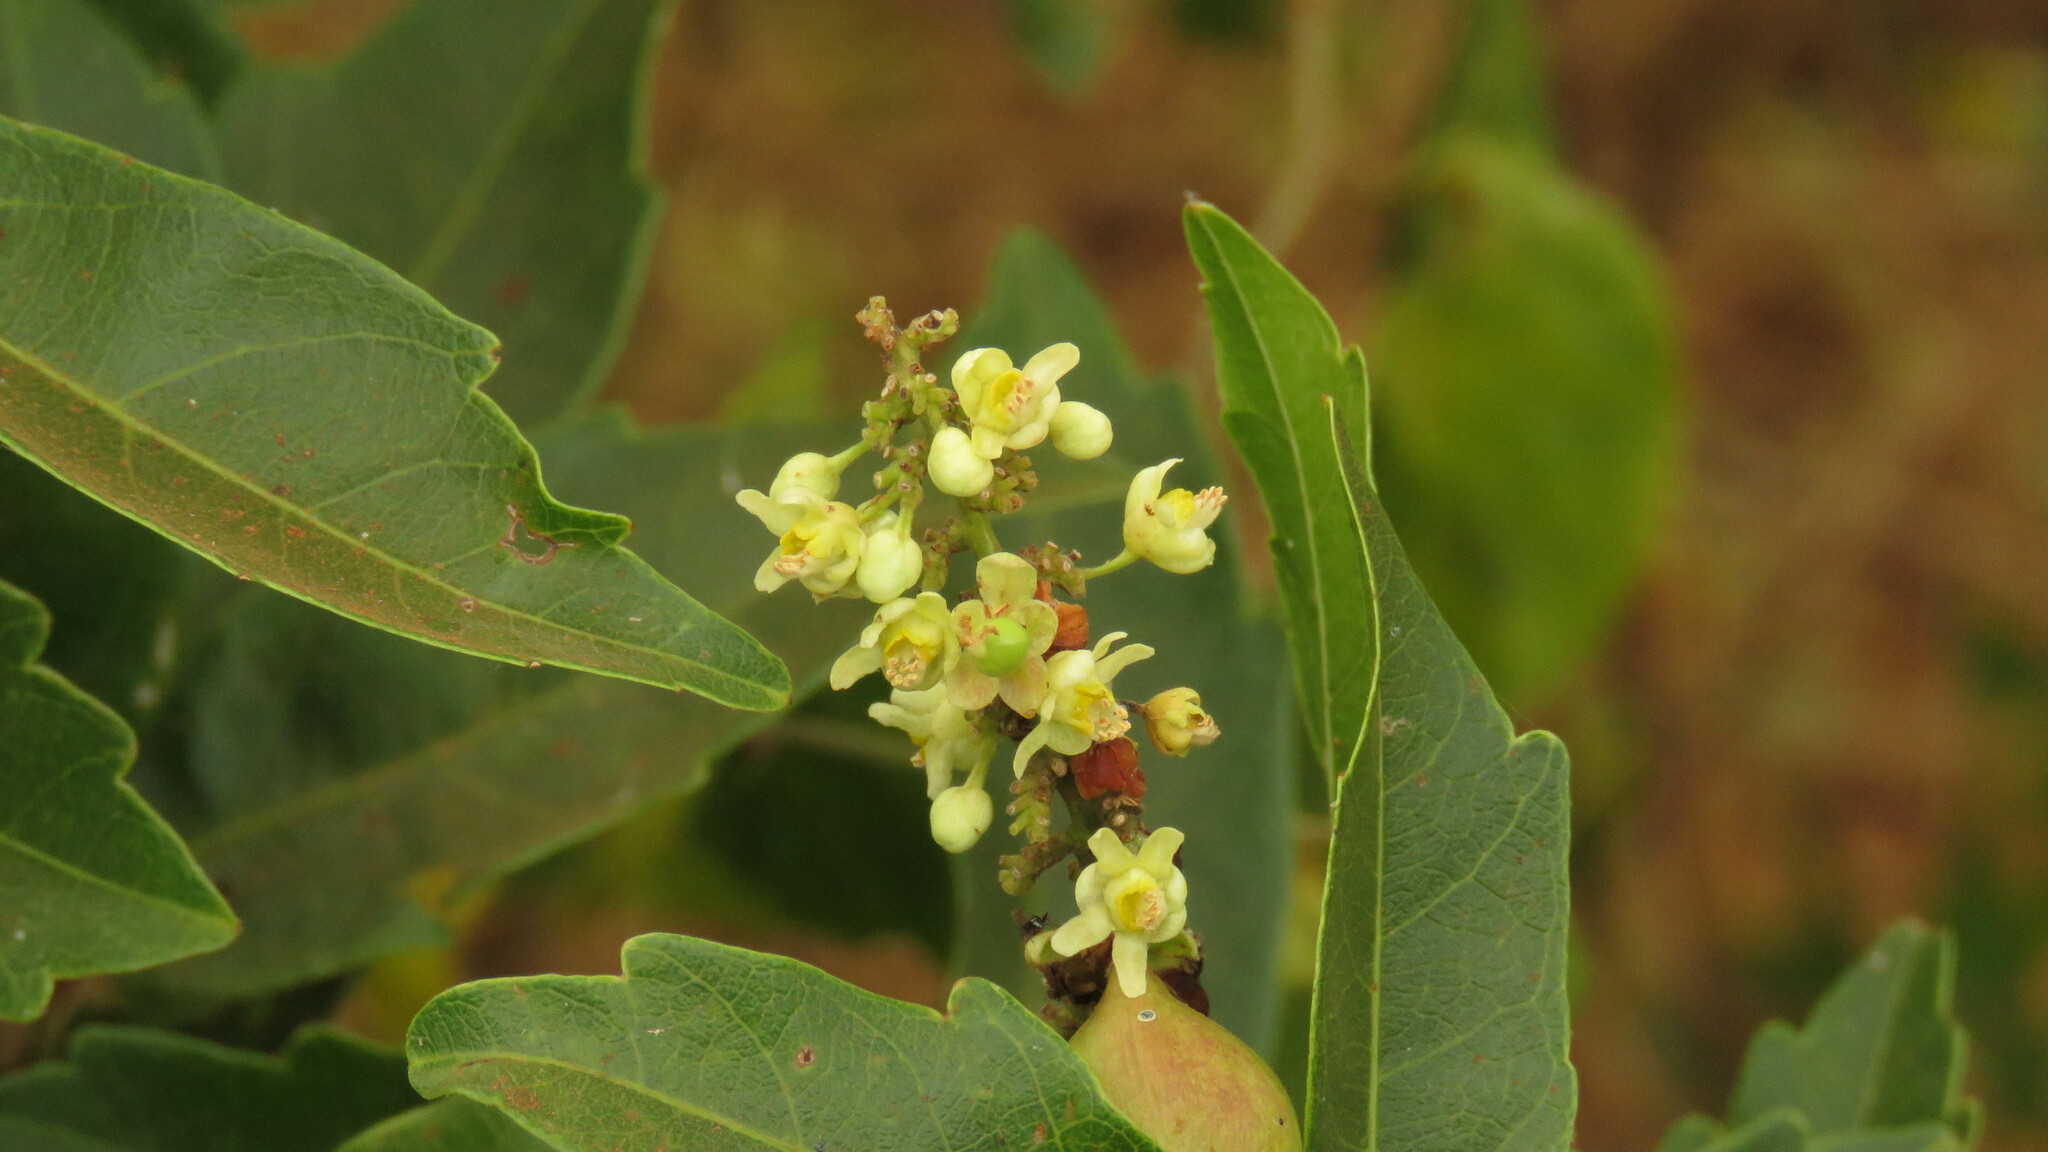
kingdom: Plantae
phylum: Tracheophyta
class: Magnoliopsida
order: Sapindales
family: Sapindaceae
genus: Paullinia
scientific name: Paullinia elegans
